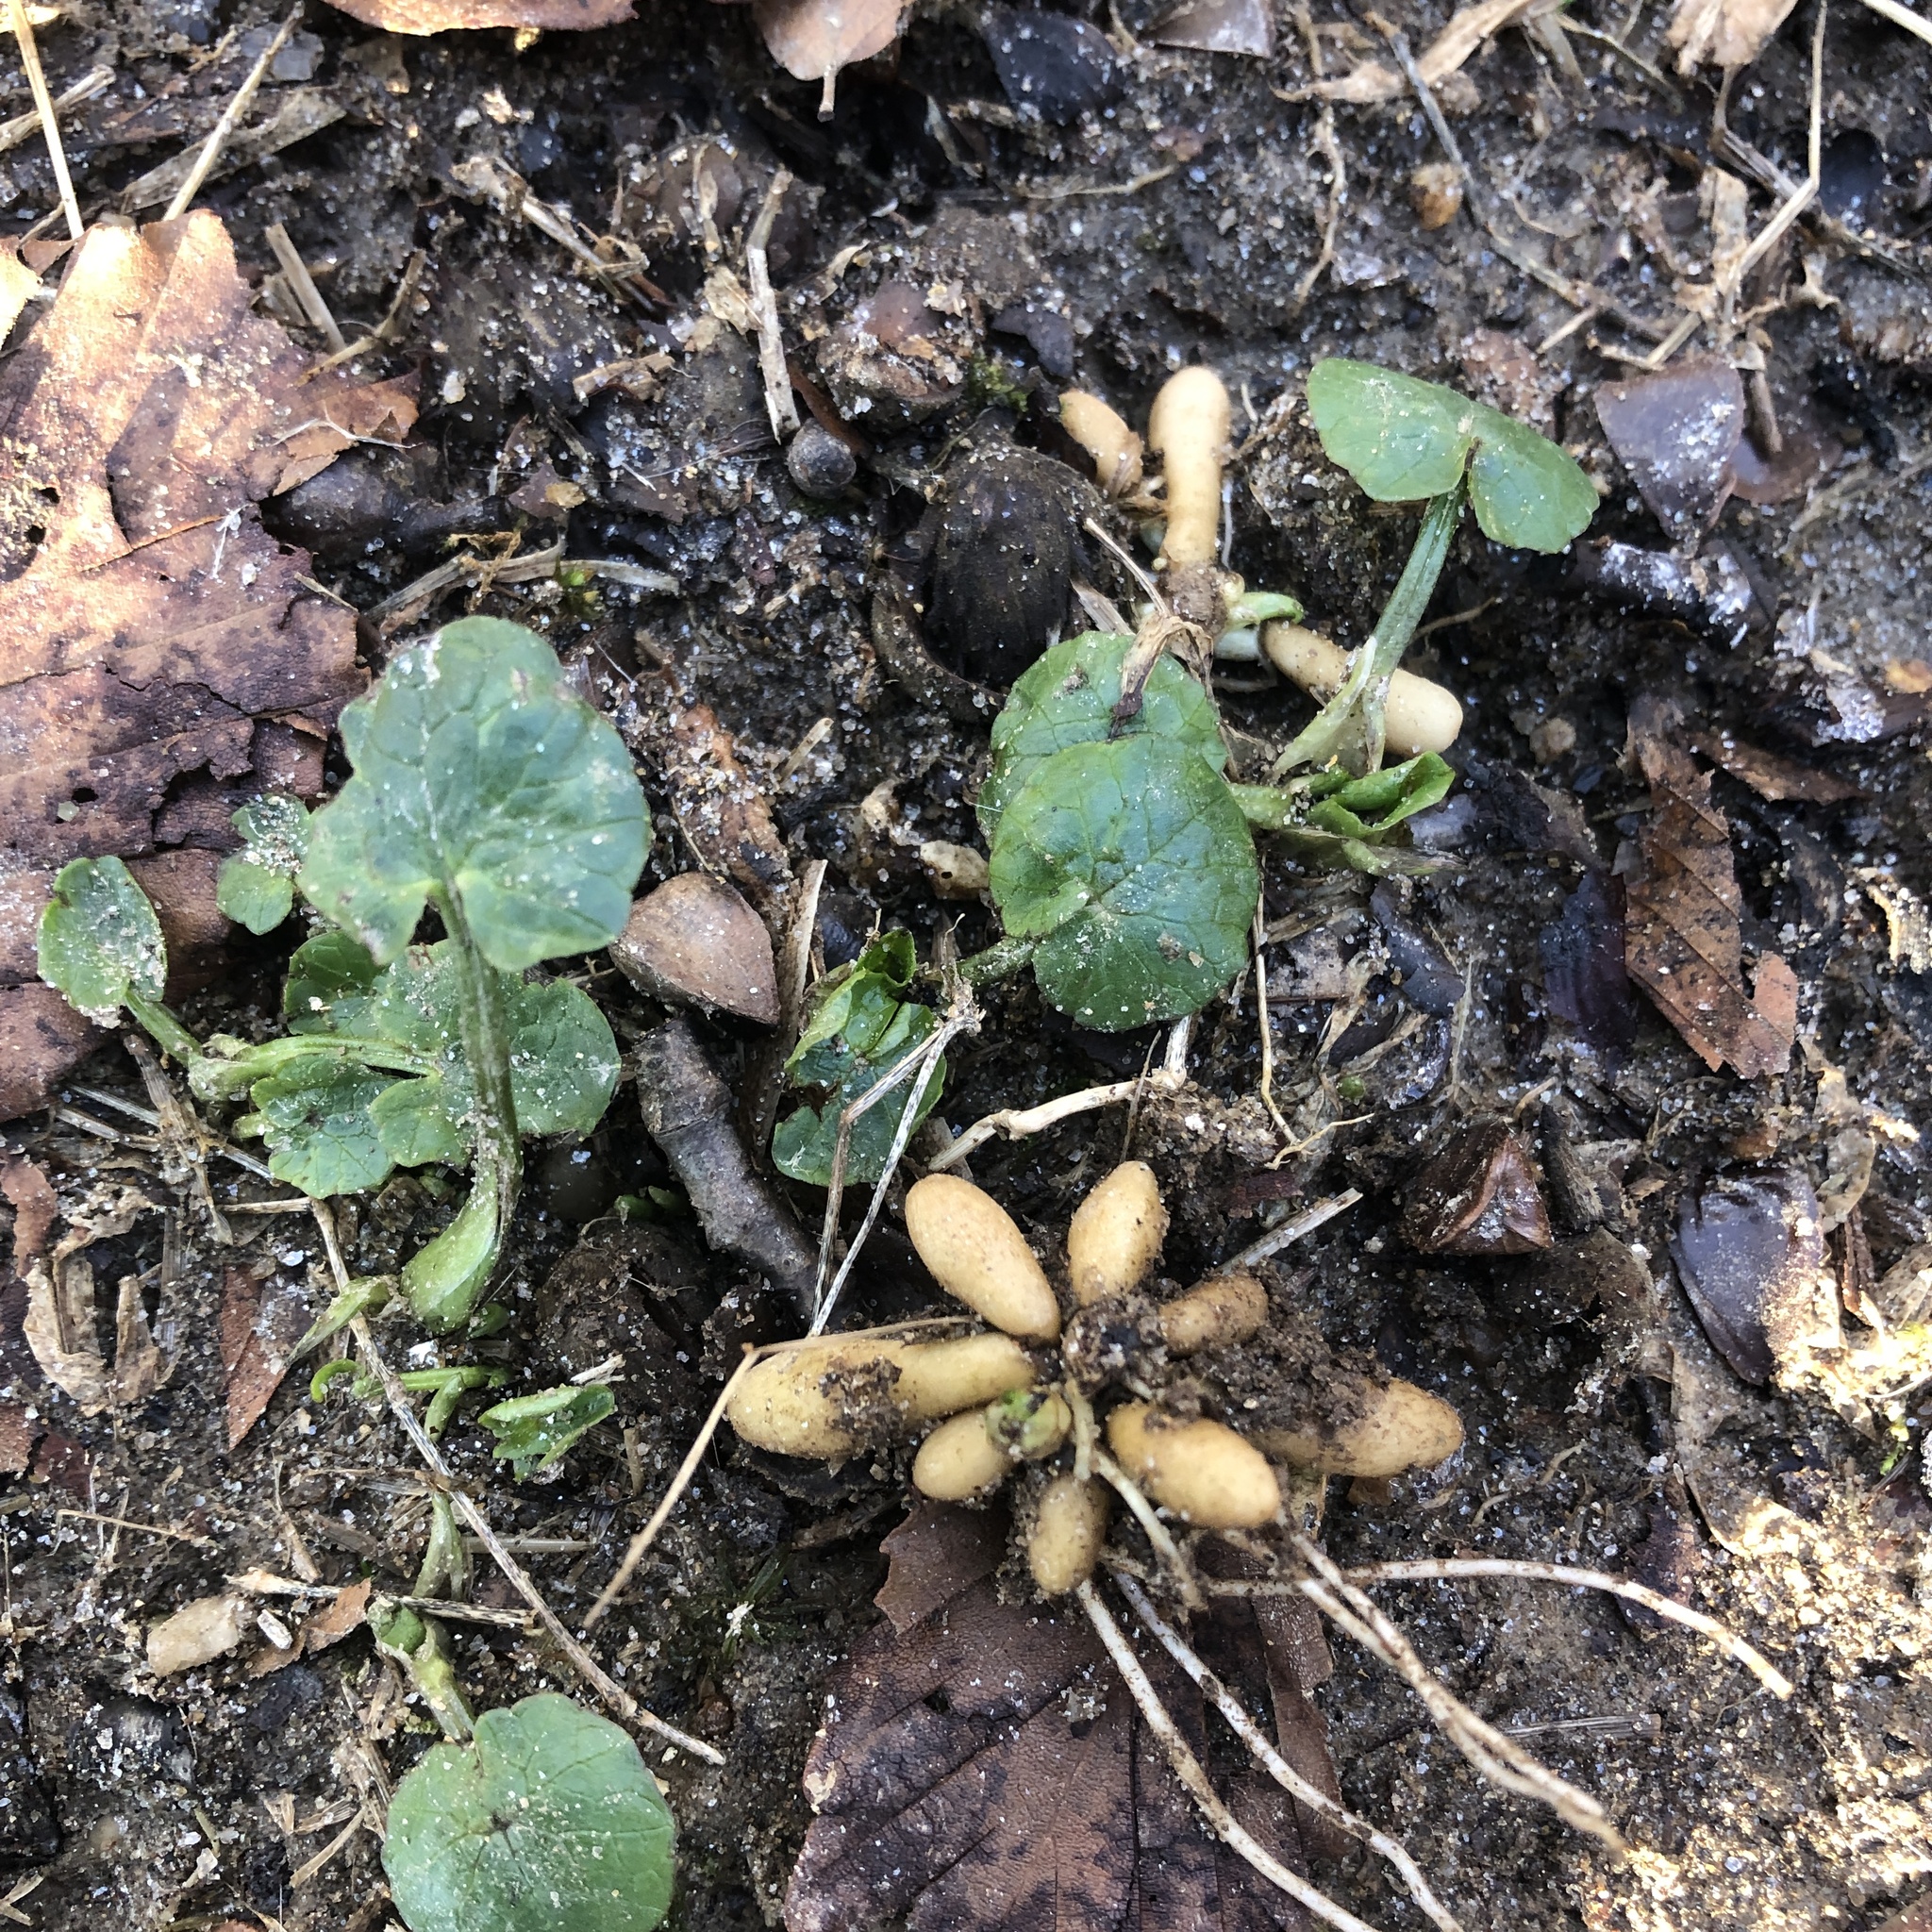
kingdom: Plantae
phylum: Tracheophyta
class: Magnoliopsida
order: Ranunculales
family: Ranunculaceae
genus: Ficaria
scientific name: Ficaria verna
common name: Lesser celandine
